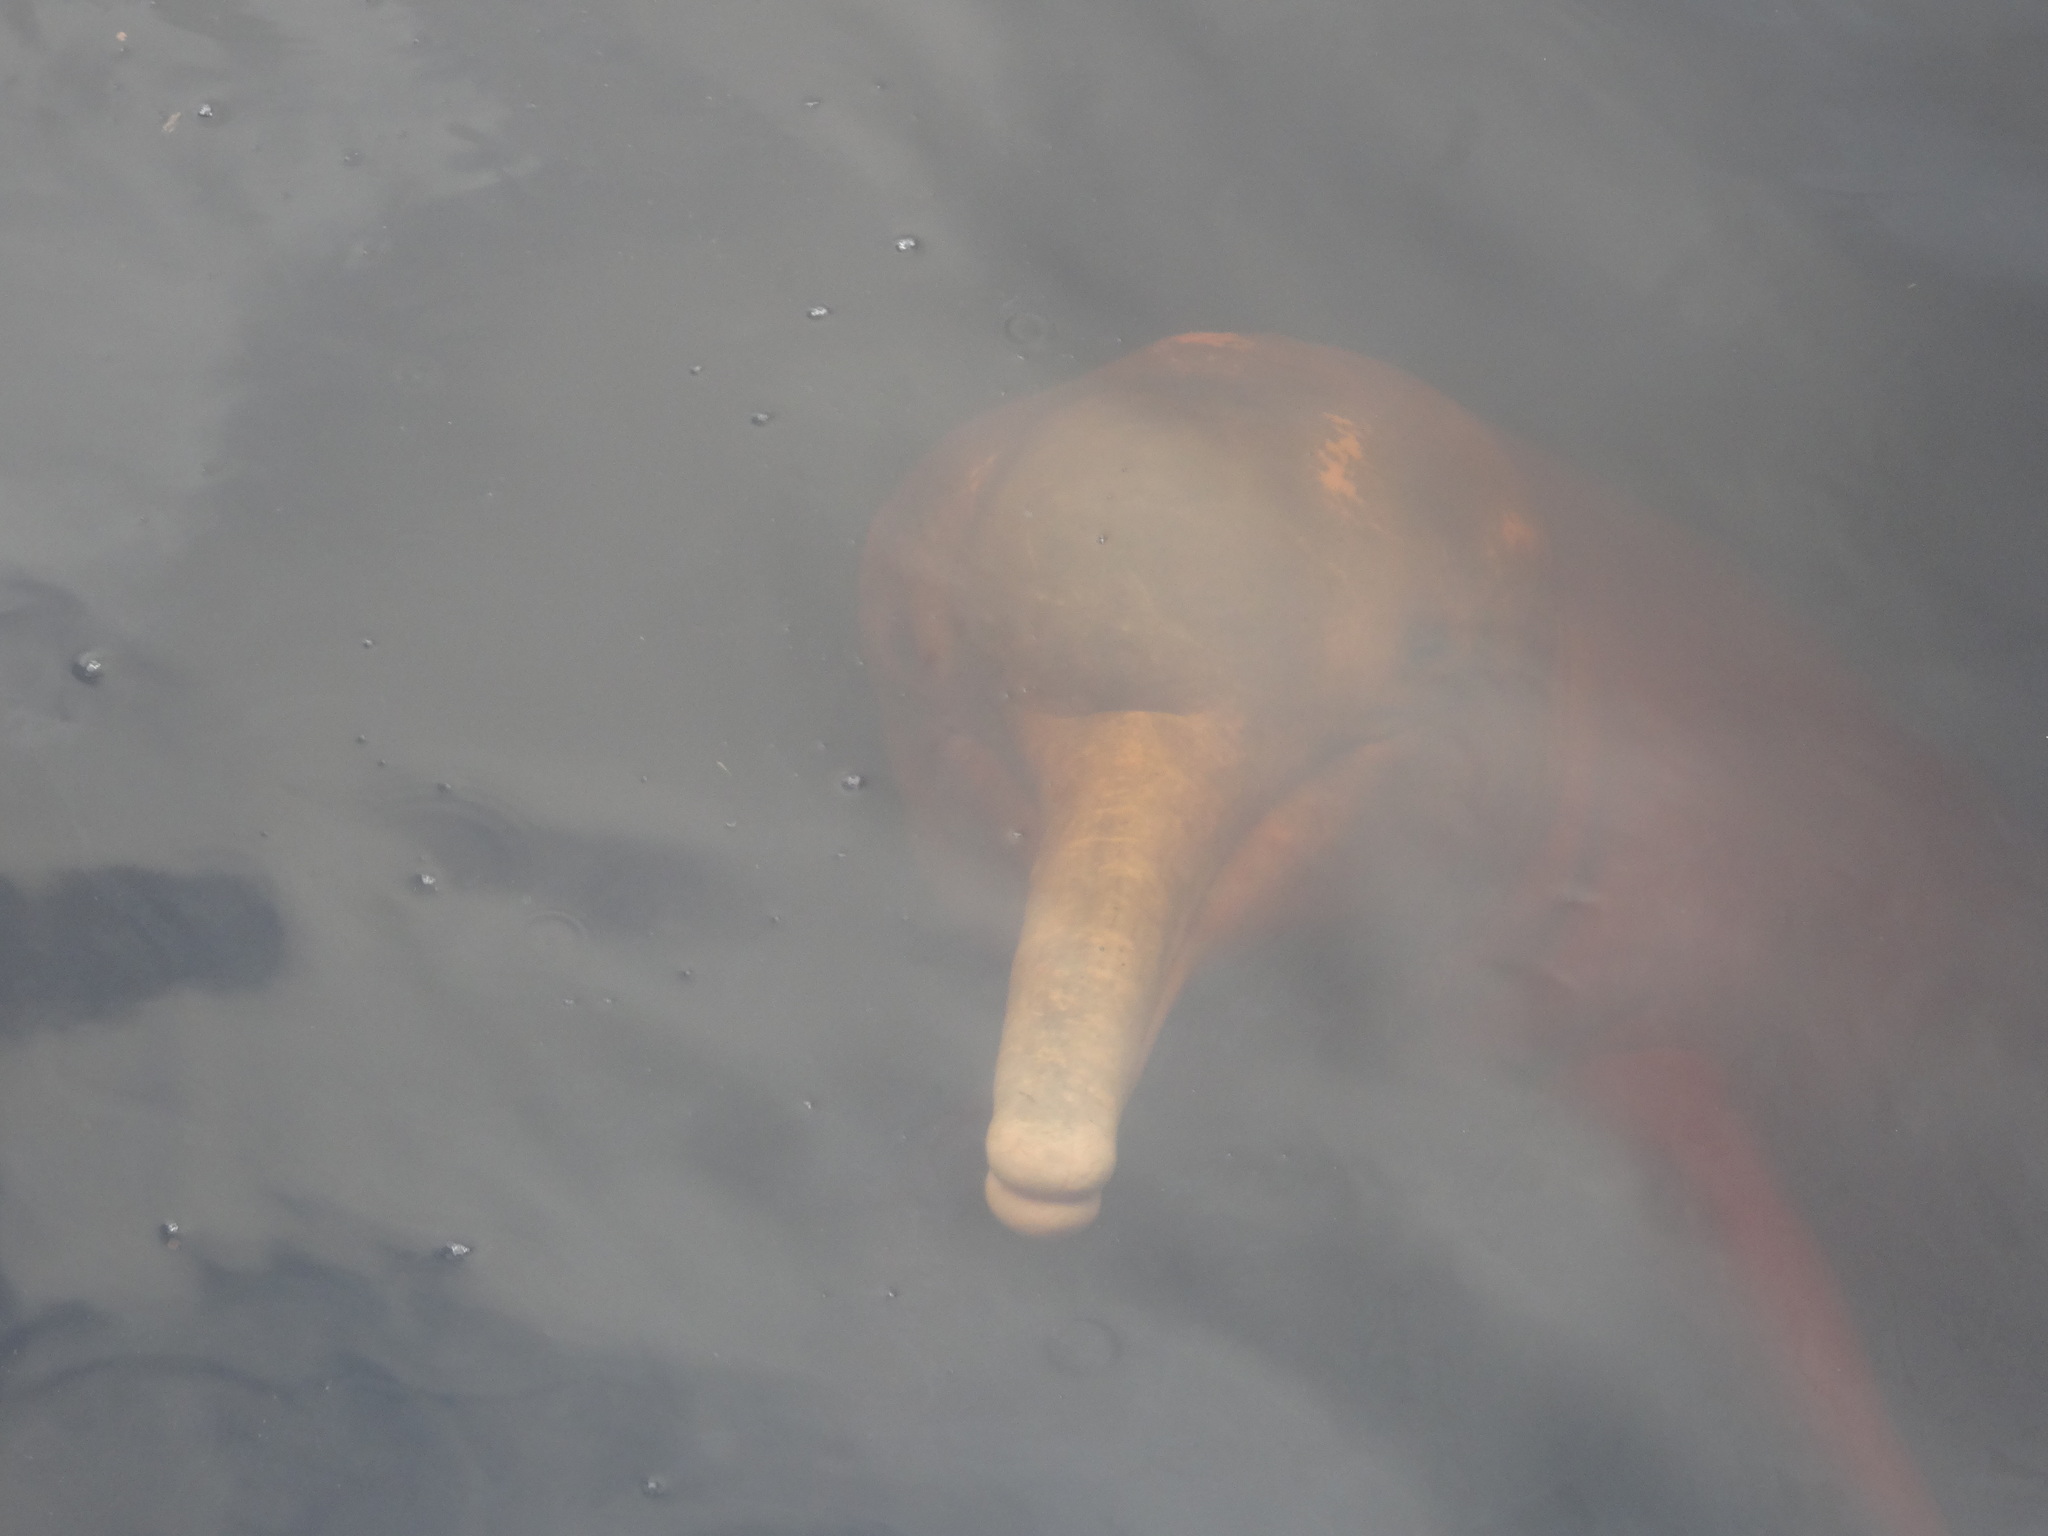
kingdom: Animalia
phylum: Chordata
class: Mammalia
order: Cetacea
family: Iniidae
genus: Inia
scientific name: Inia geoffrensis
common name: Amazon river dolphin
